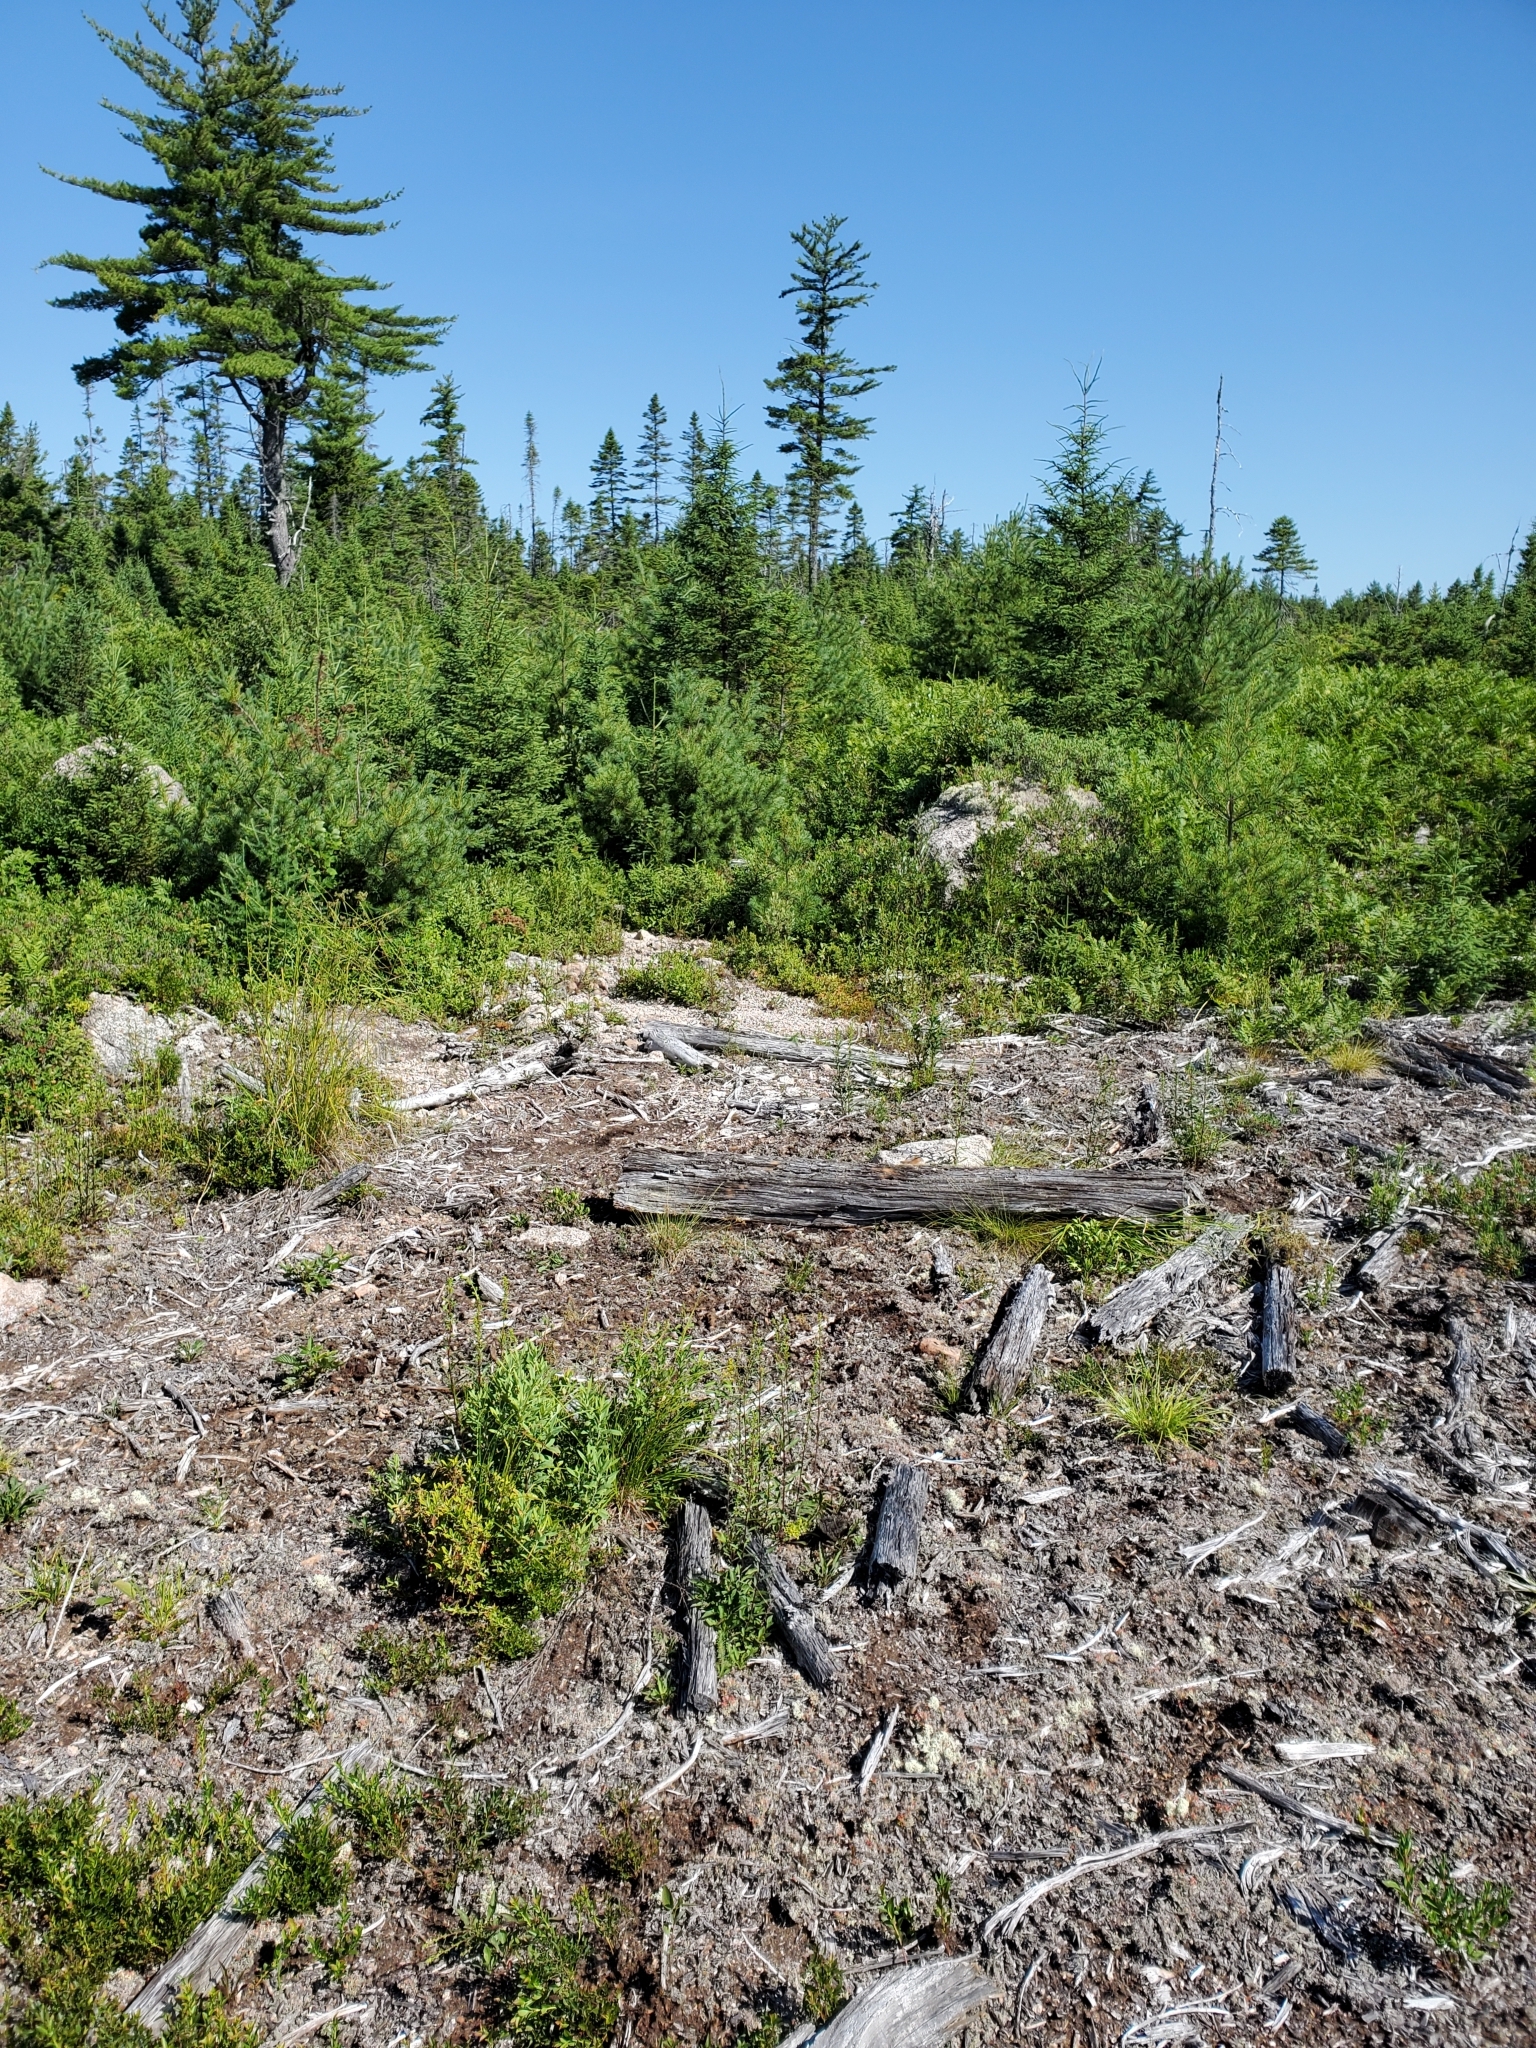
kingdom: Animalia
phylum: Chordata
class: Amphibia
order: Caudata
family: Plethodontidae
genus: Plethodon
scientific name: Plethodon cinereus
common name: Redback salamander
